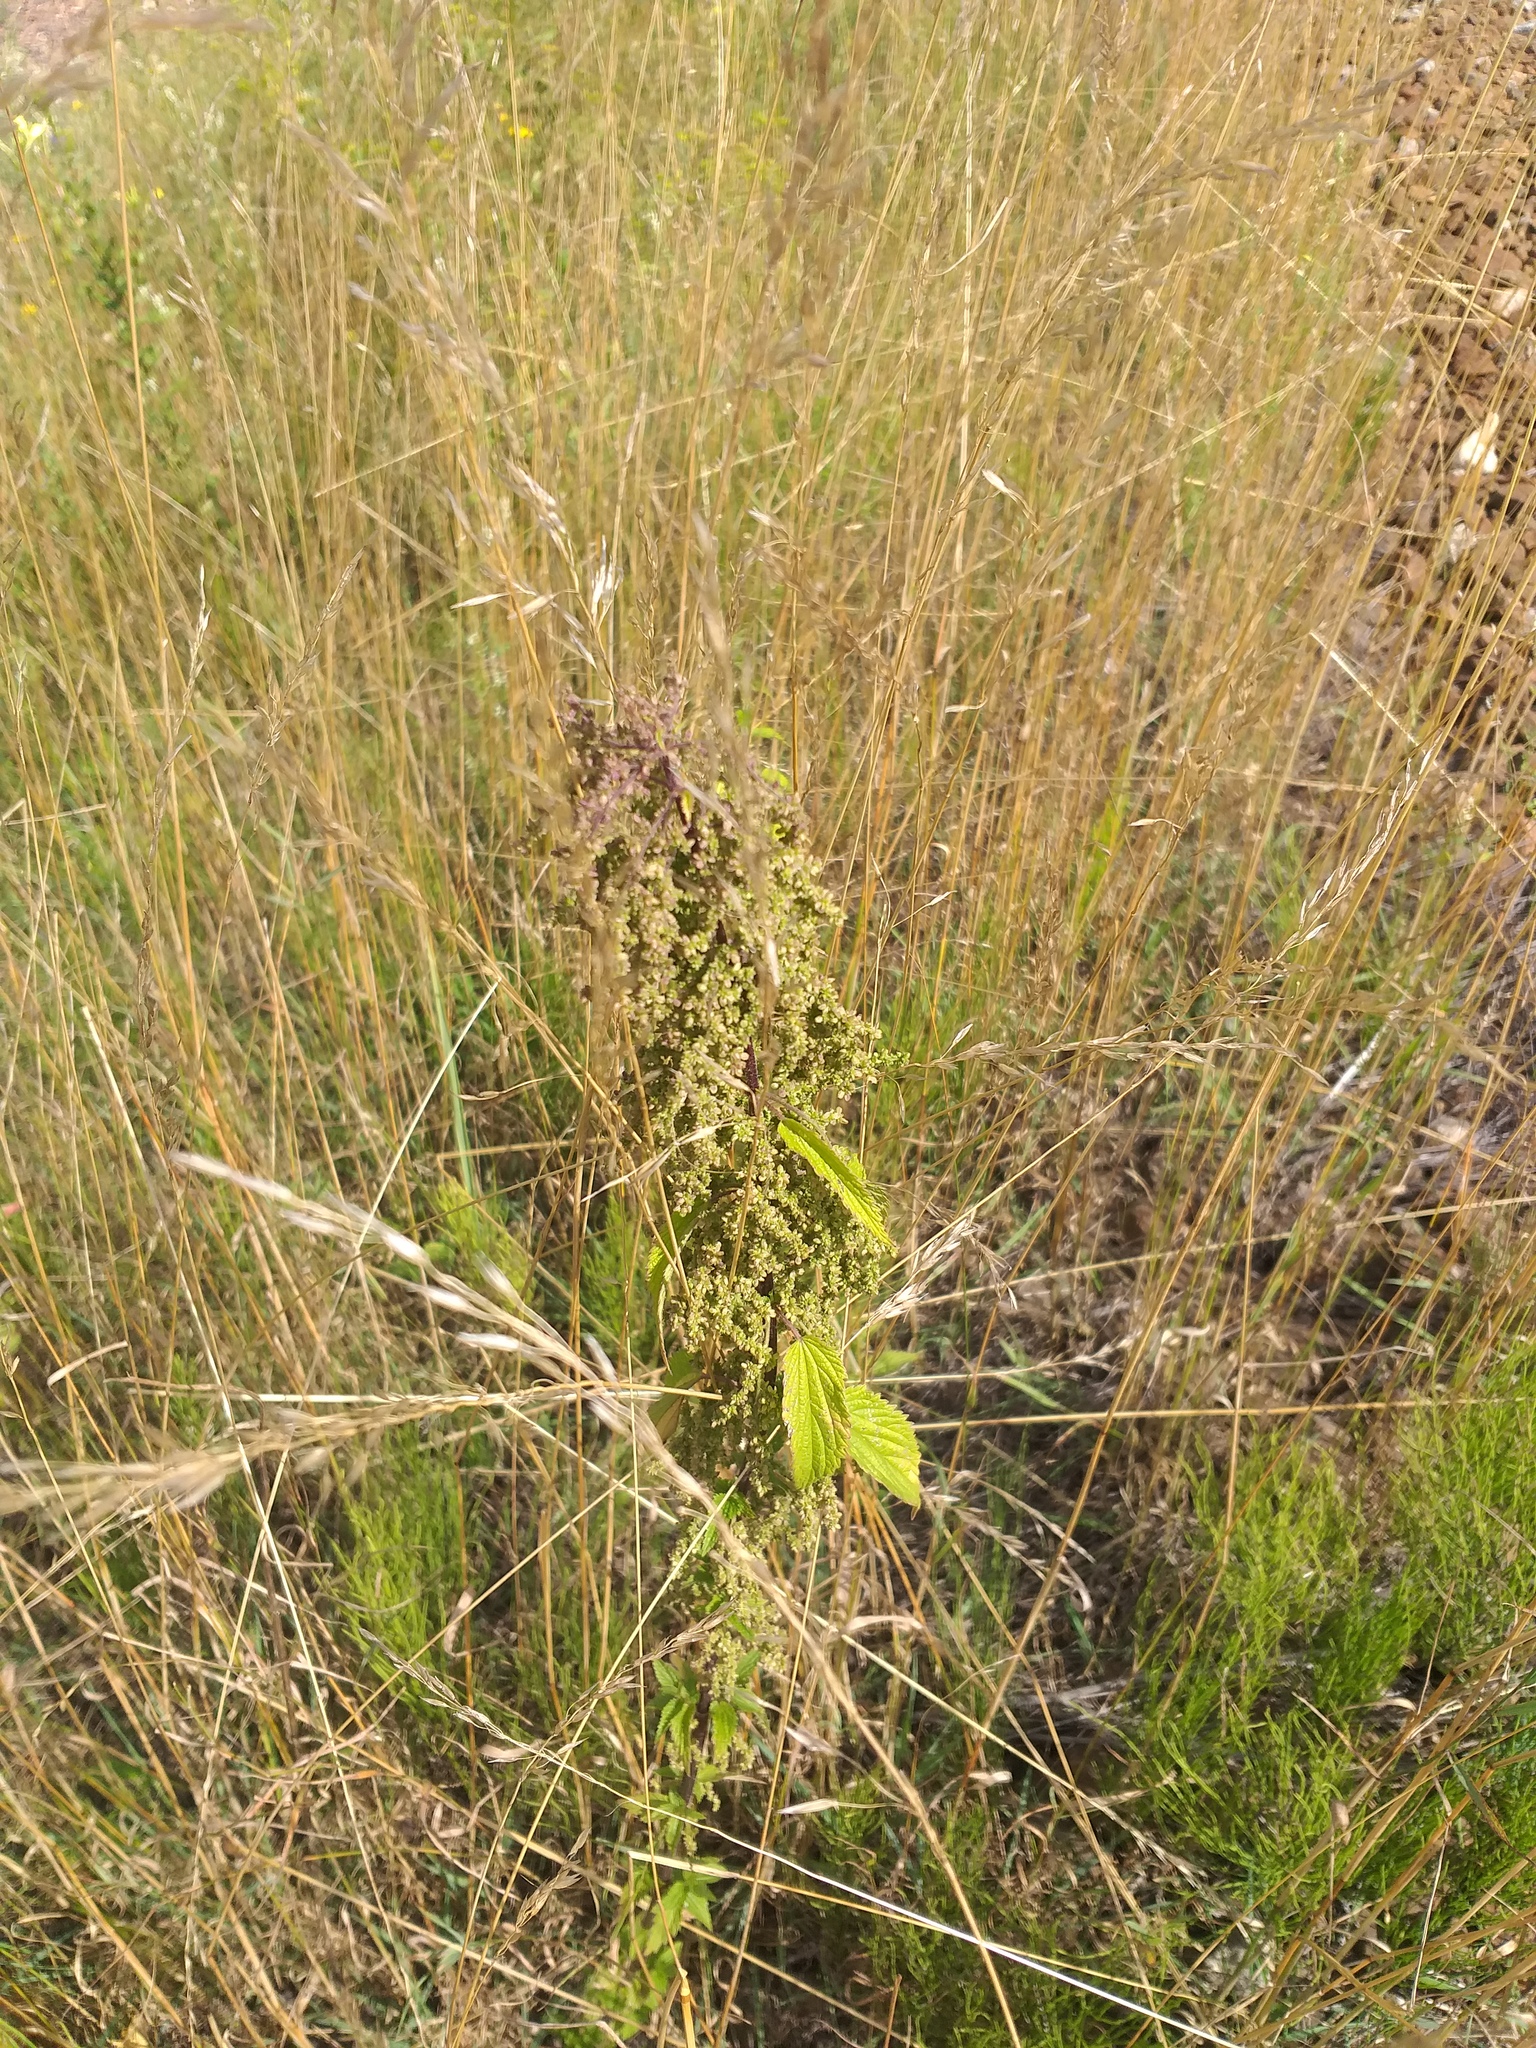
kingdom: Plantae
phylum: Tracheophyta
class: Magnoliopsida
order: Rosales
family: Urticaceae
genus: Urtica
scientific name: Urtica dioica
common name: Common nettle
